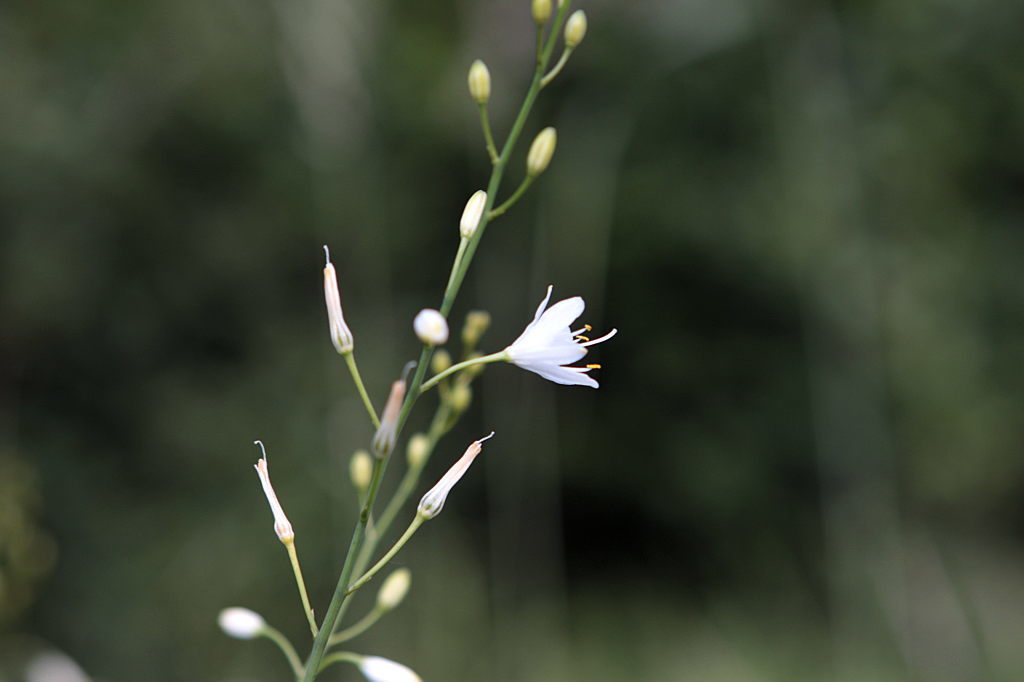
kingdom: Plantae
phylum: Tracheophyta
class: Liliopsida
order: Asparagales
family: Asparagaceae
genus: Anthericum
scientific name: Anthericum ramosum
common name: Branched st. bernard's-lily
